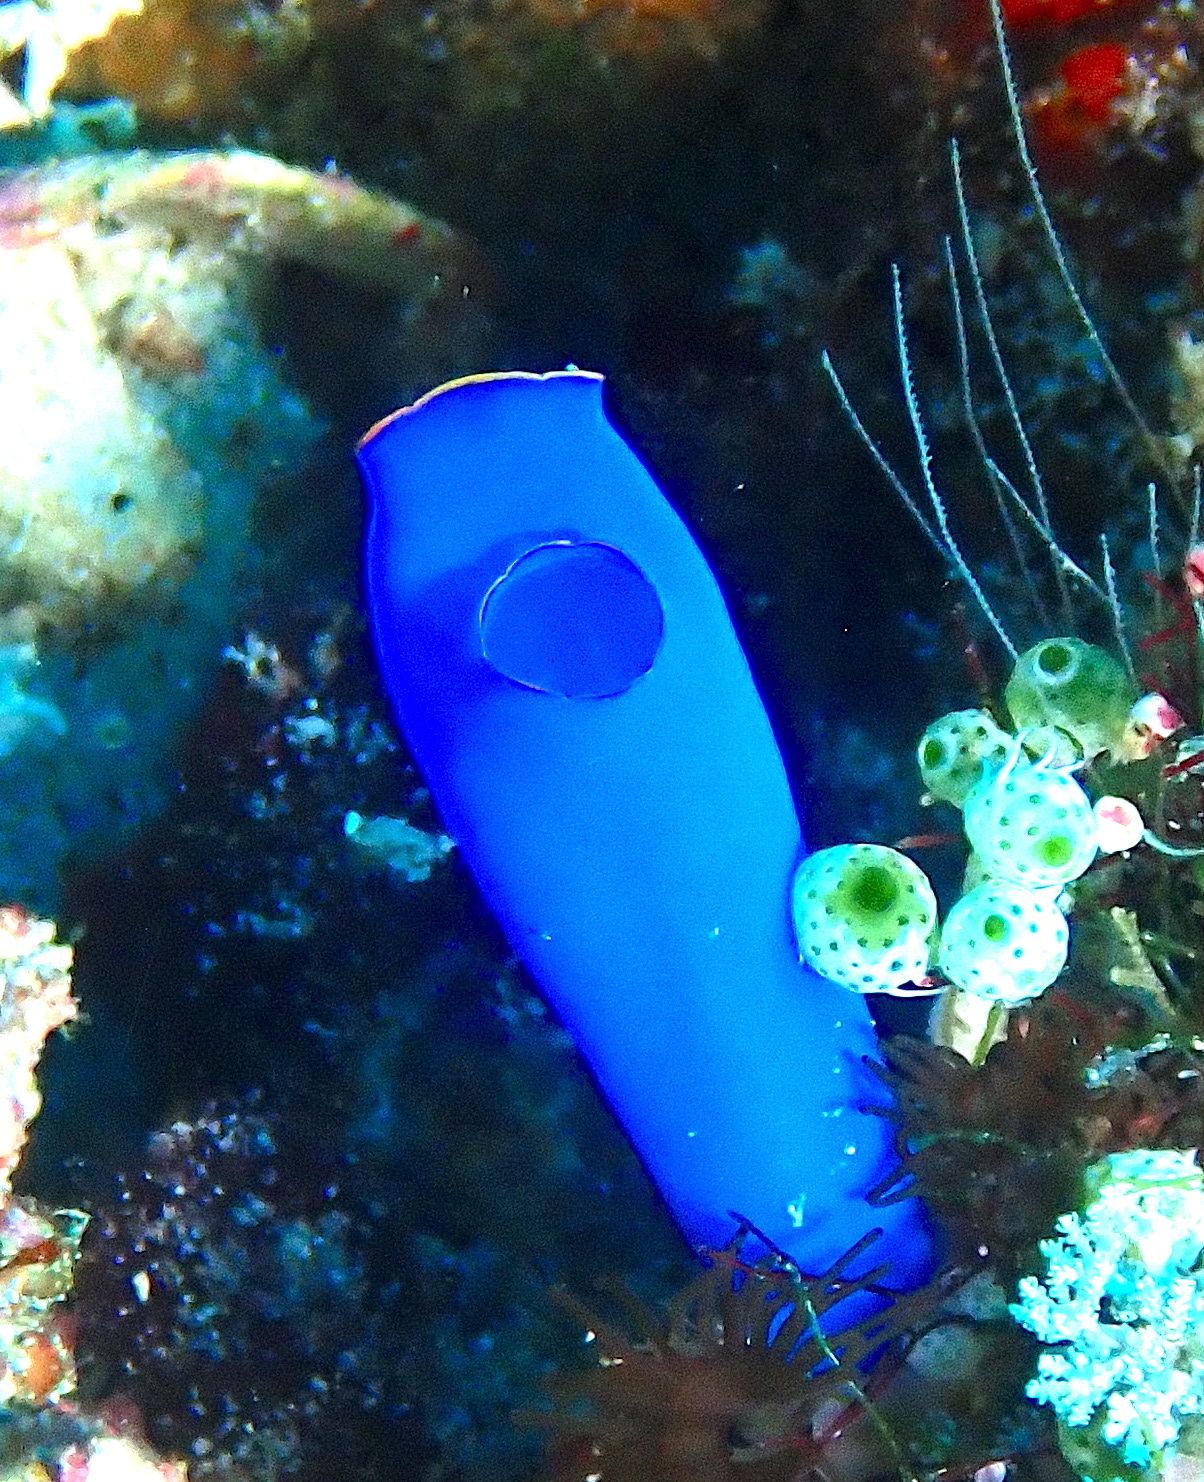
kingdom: Animalia
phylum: Chordata
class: Ascidiacea
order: Aplousobranchia
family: Diazonidae
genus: Rhopalaea
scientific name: Rhopalaea fusca
